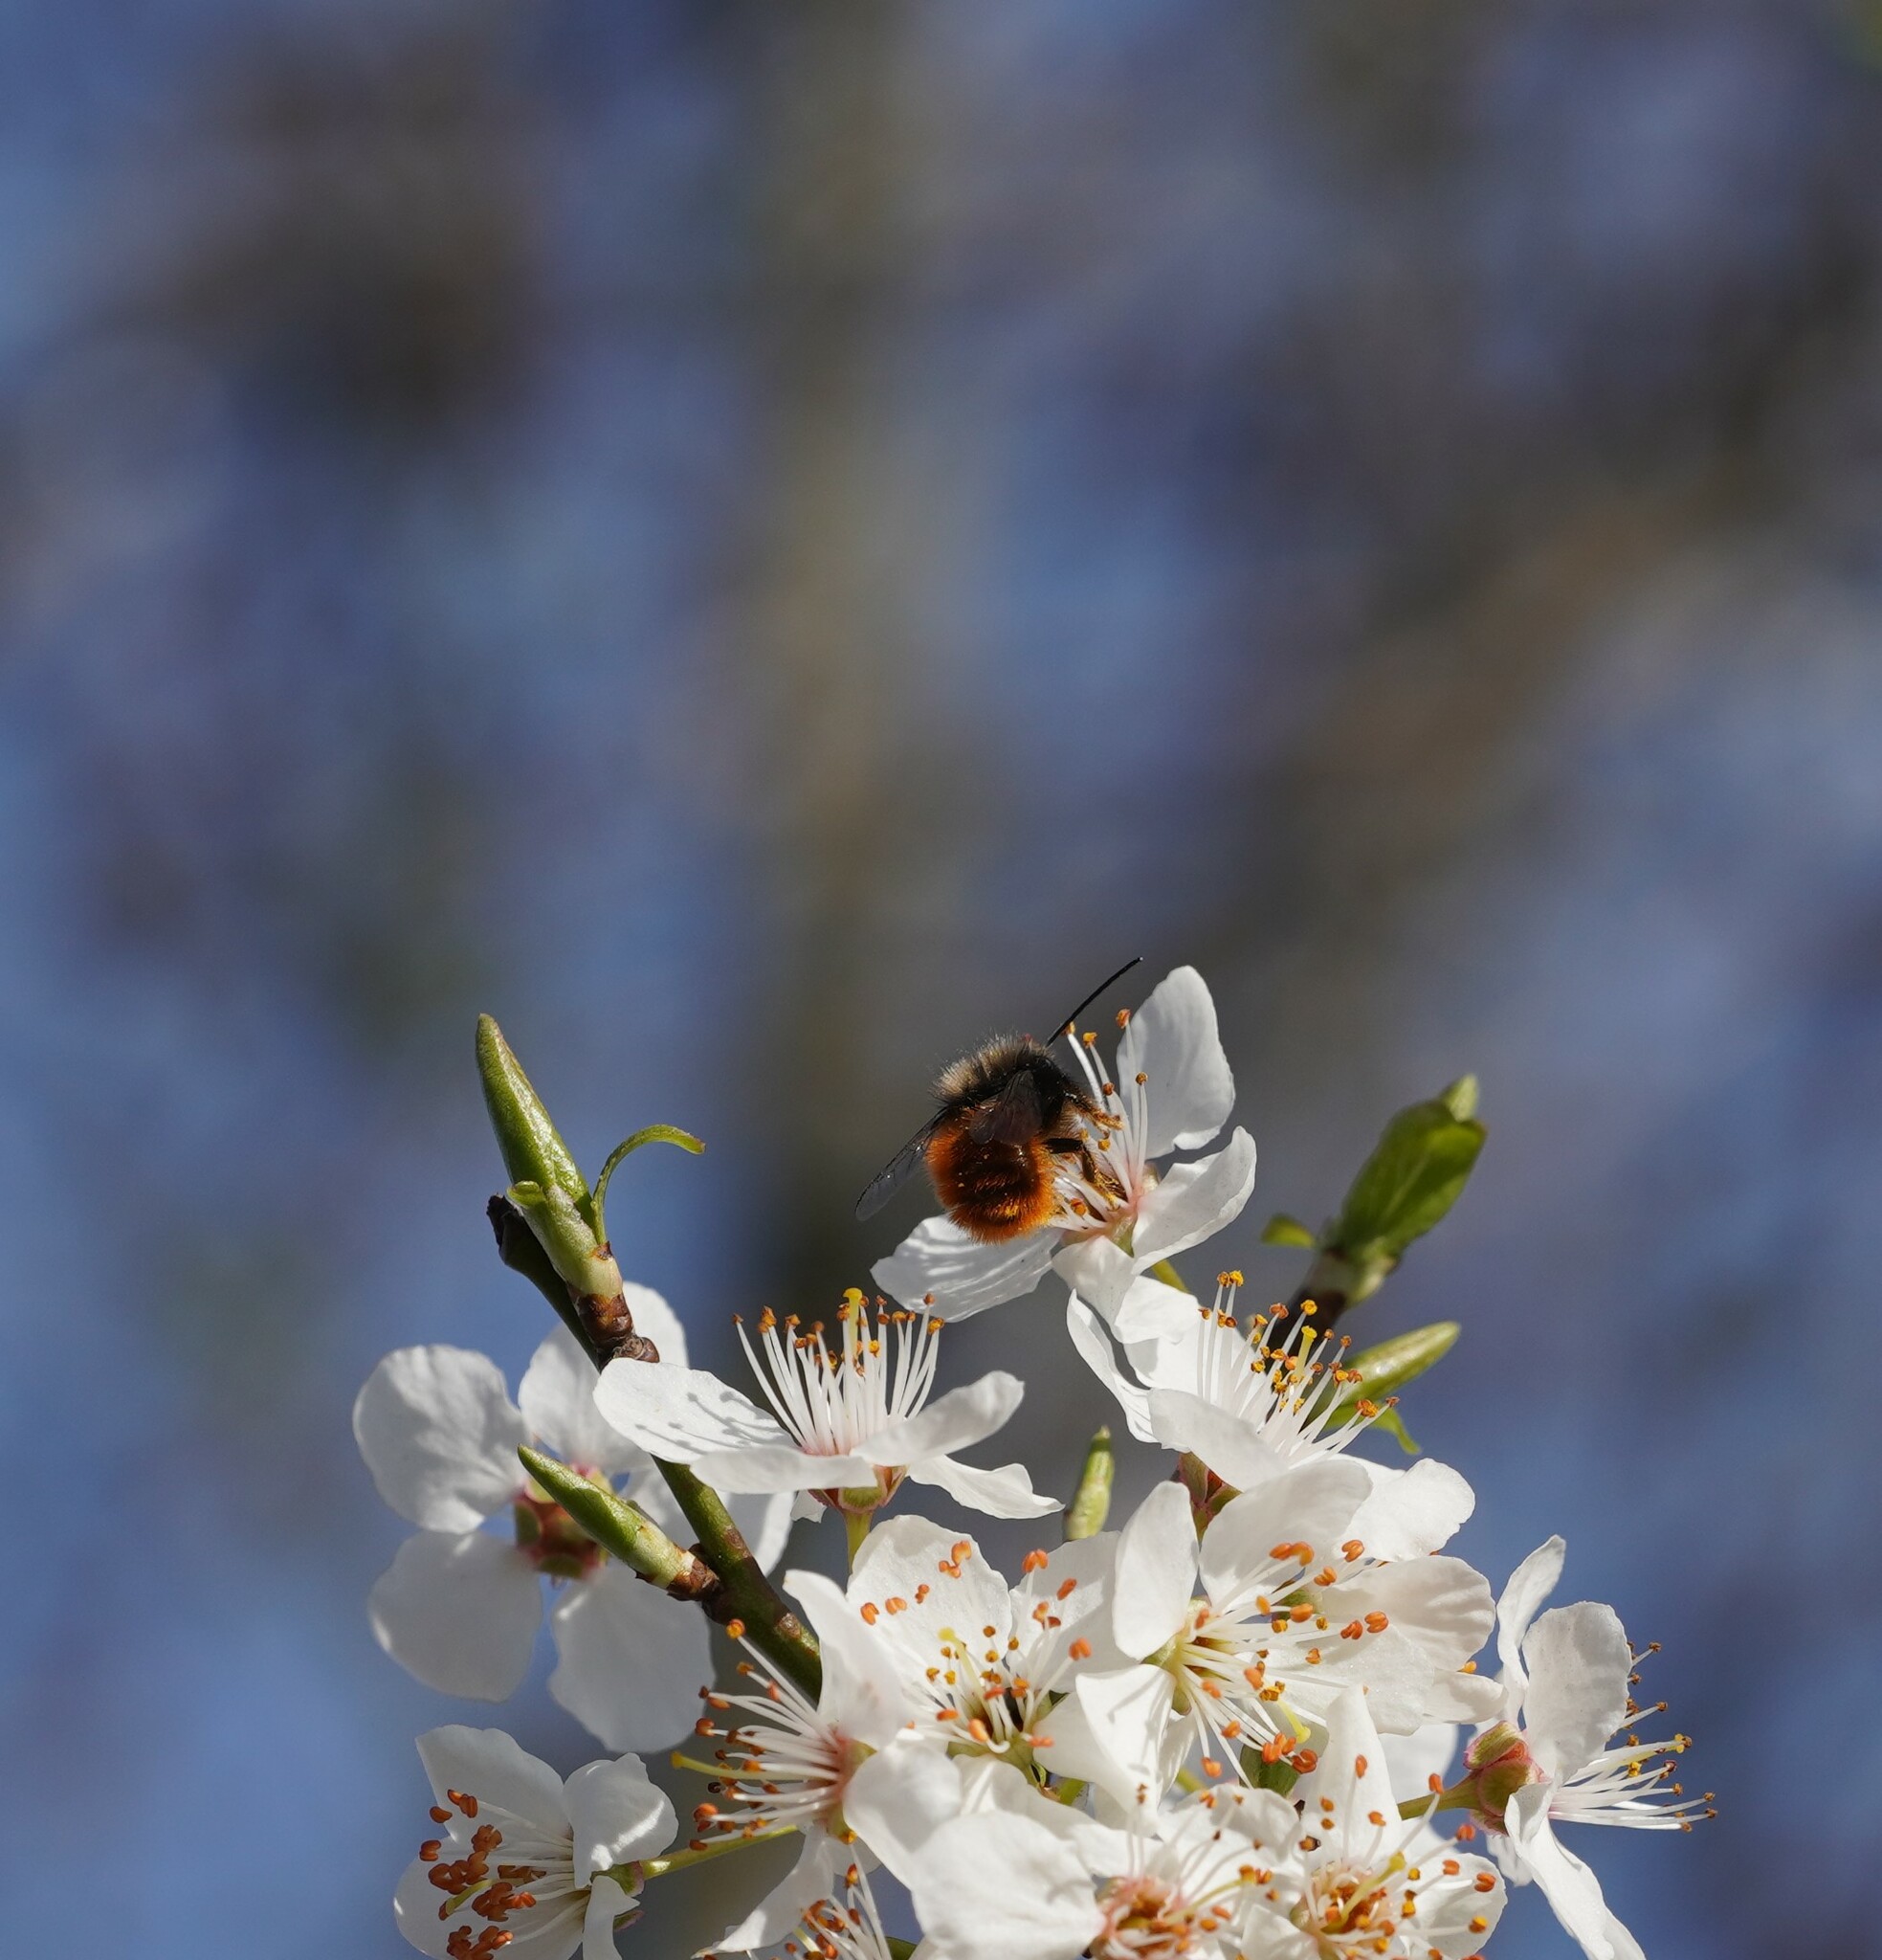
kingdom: Animalia
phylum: Arthropoda
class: Insecta
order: Hymenoptera
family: Megachilidae
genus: Osmia
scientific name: Osmia cornuta
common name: Mason bee
